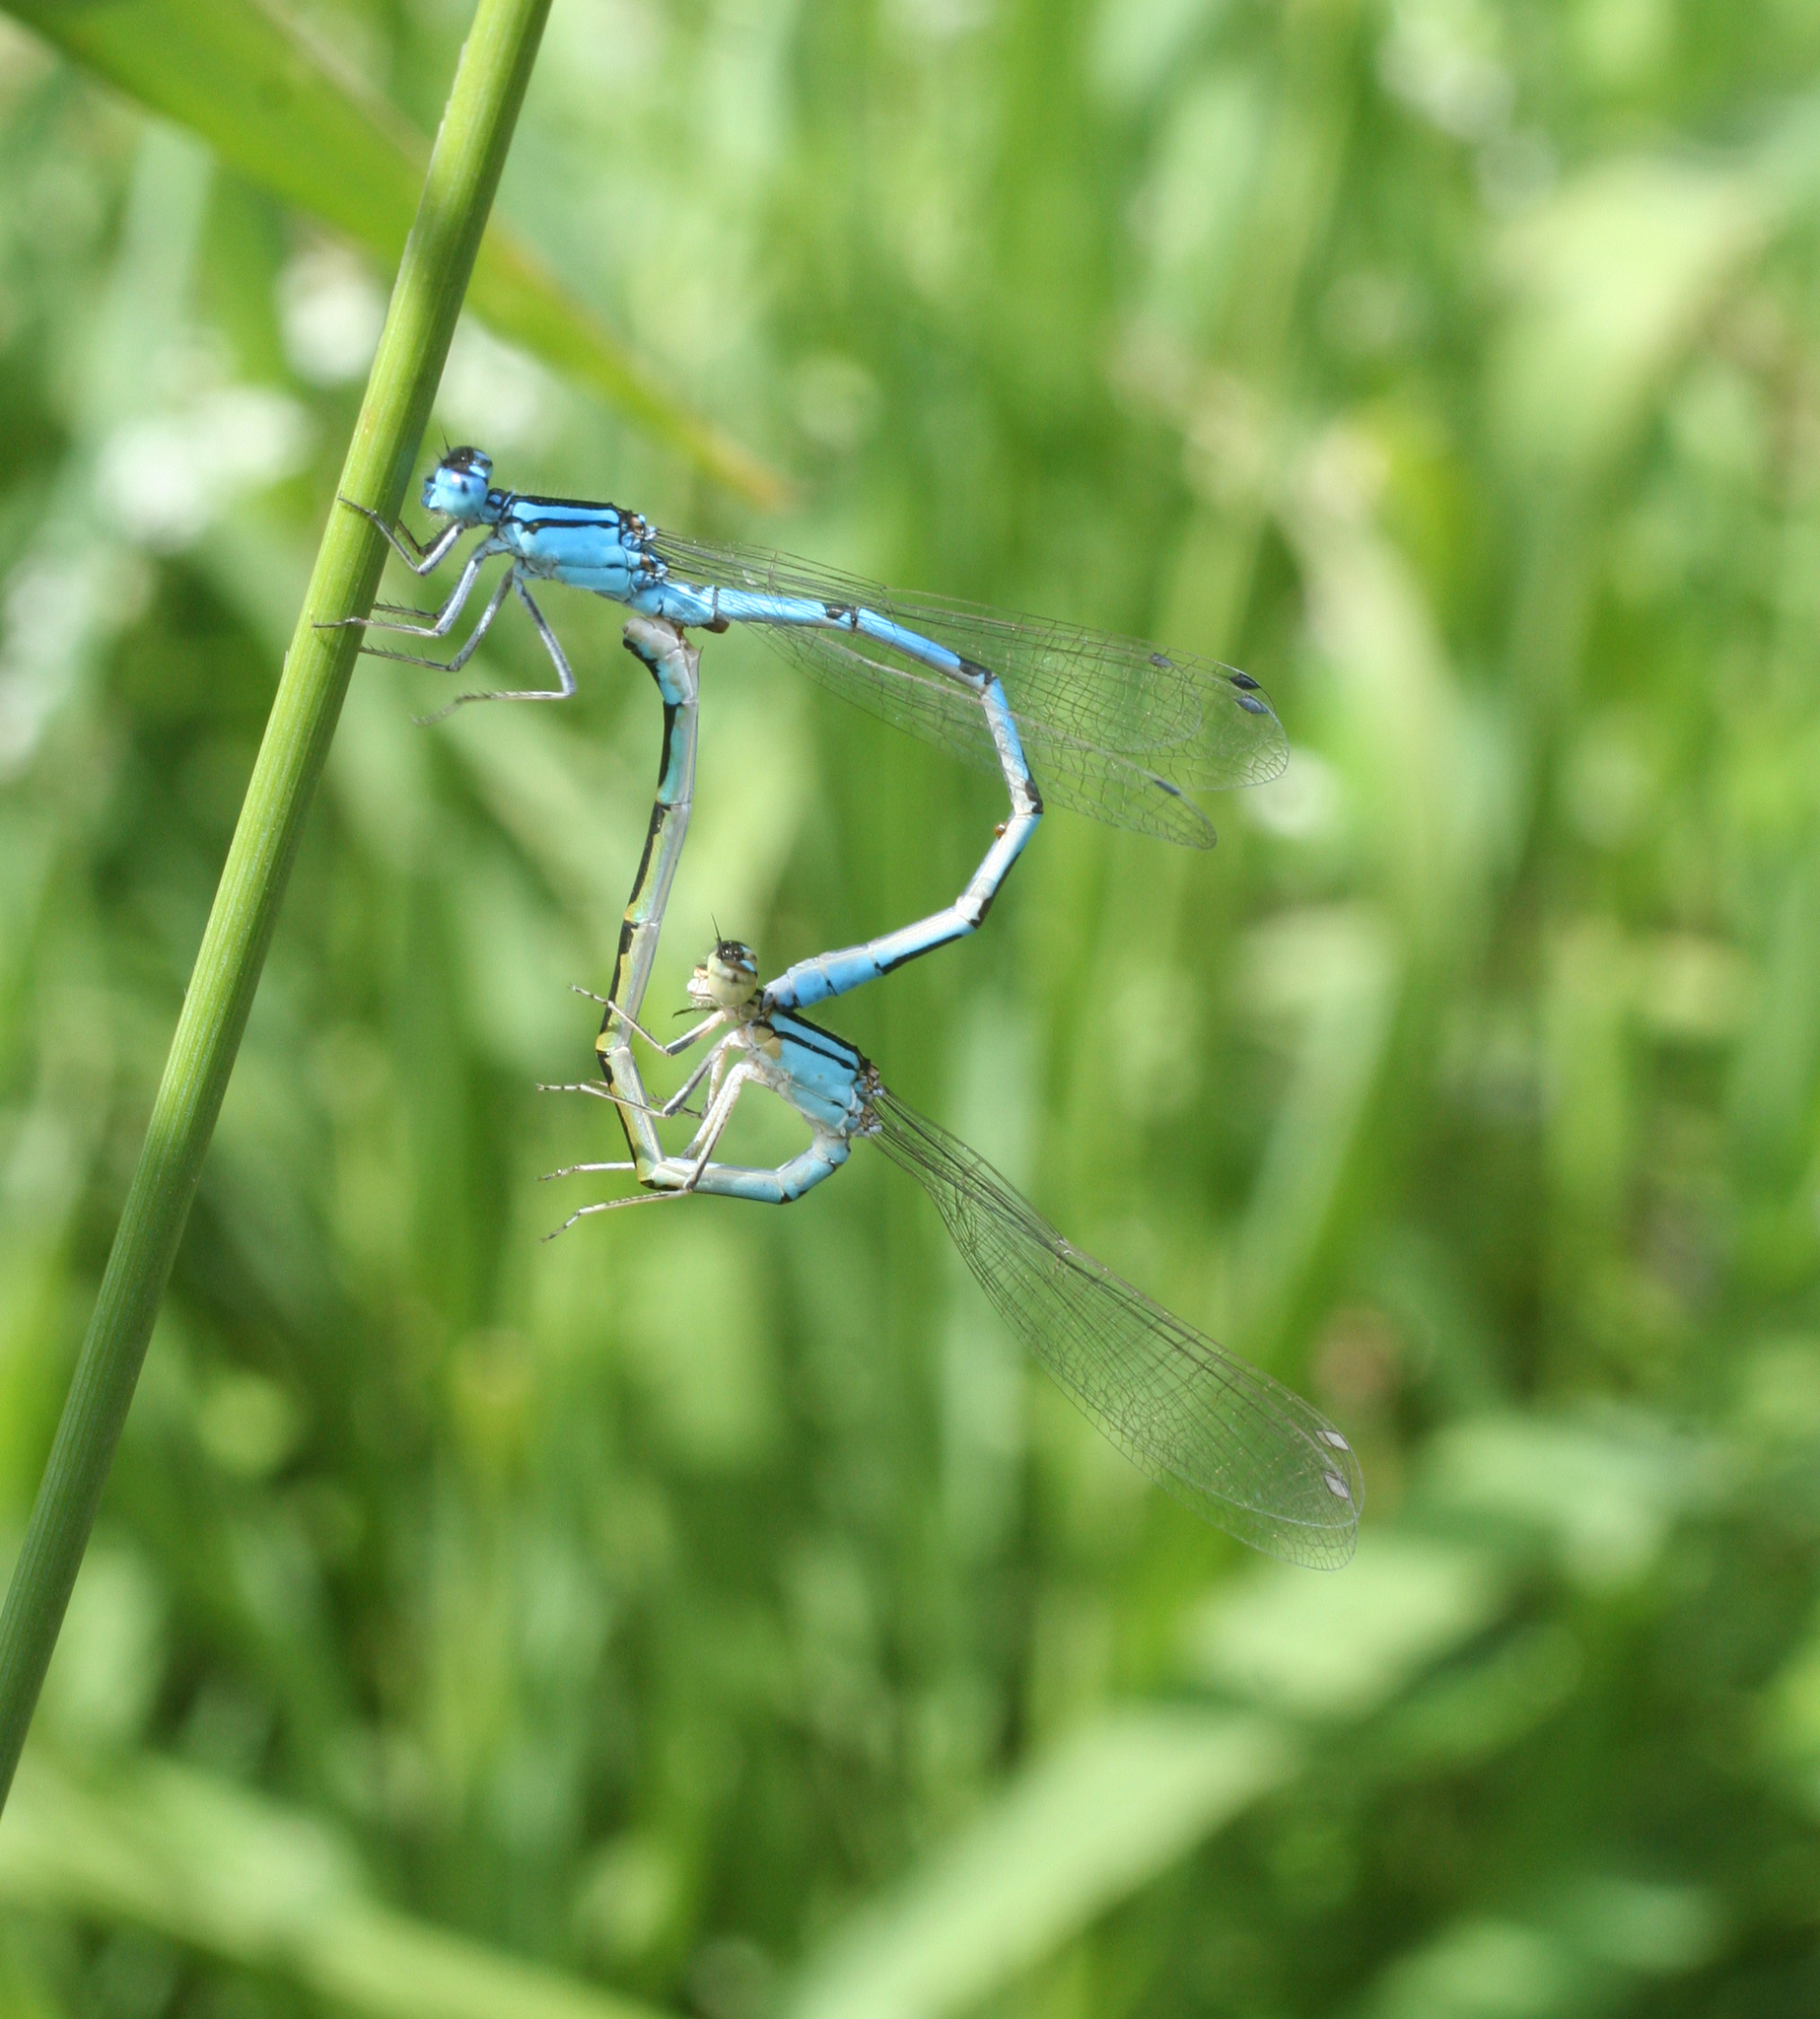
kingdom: Animalia
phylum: Arthropoda
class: Insecta
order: Odonata
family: Coenagrionidae
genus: Enallagma
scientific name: Enallagma cyathigerum
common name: Common blue damselfly
